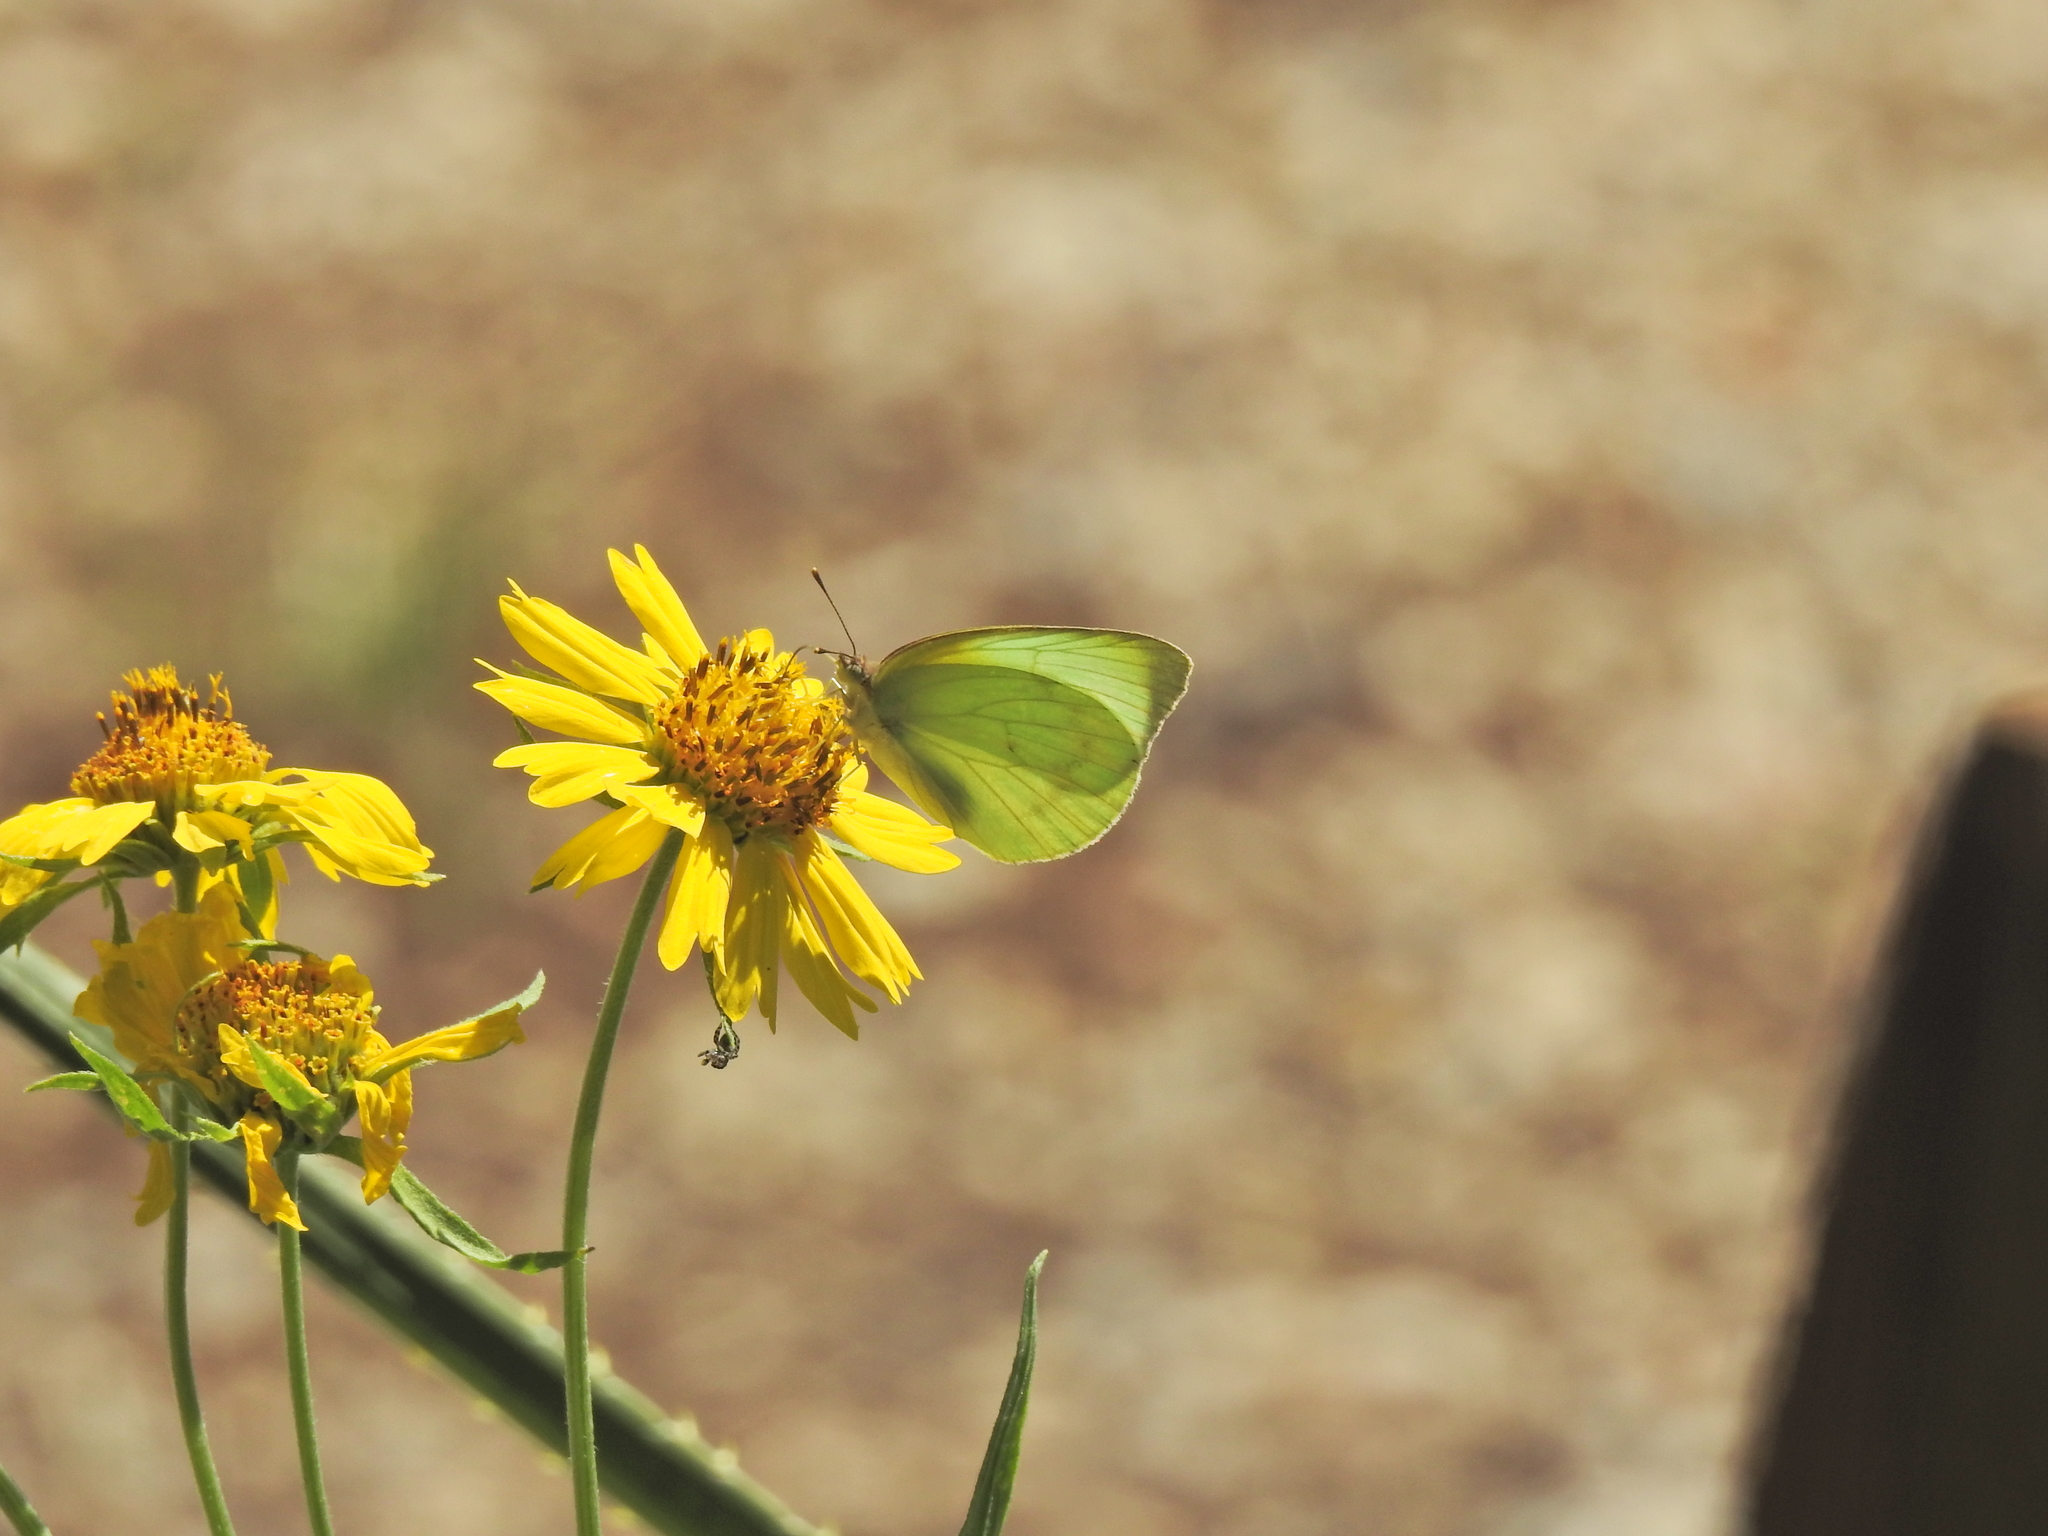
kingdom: Animalia
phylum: Arthropoda
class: Insecta
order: Lepidoptera
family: Pieridae
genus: Kricogonia
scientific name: Kricogonia lyside
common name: Guayacan sulphur,
